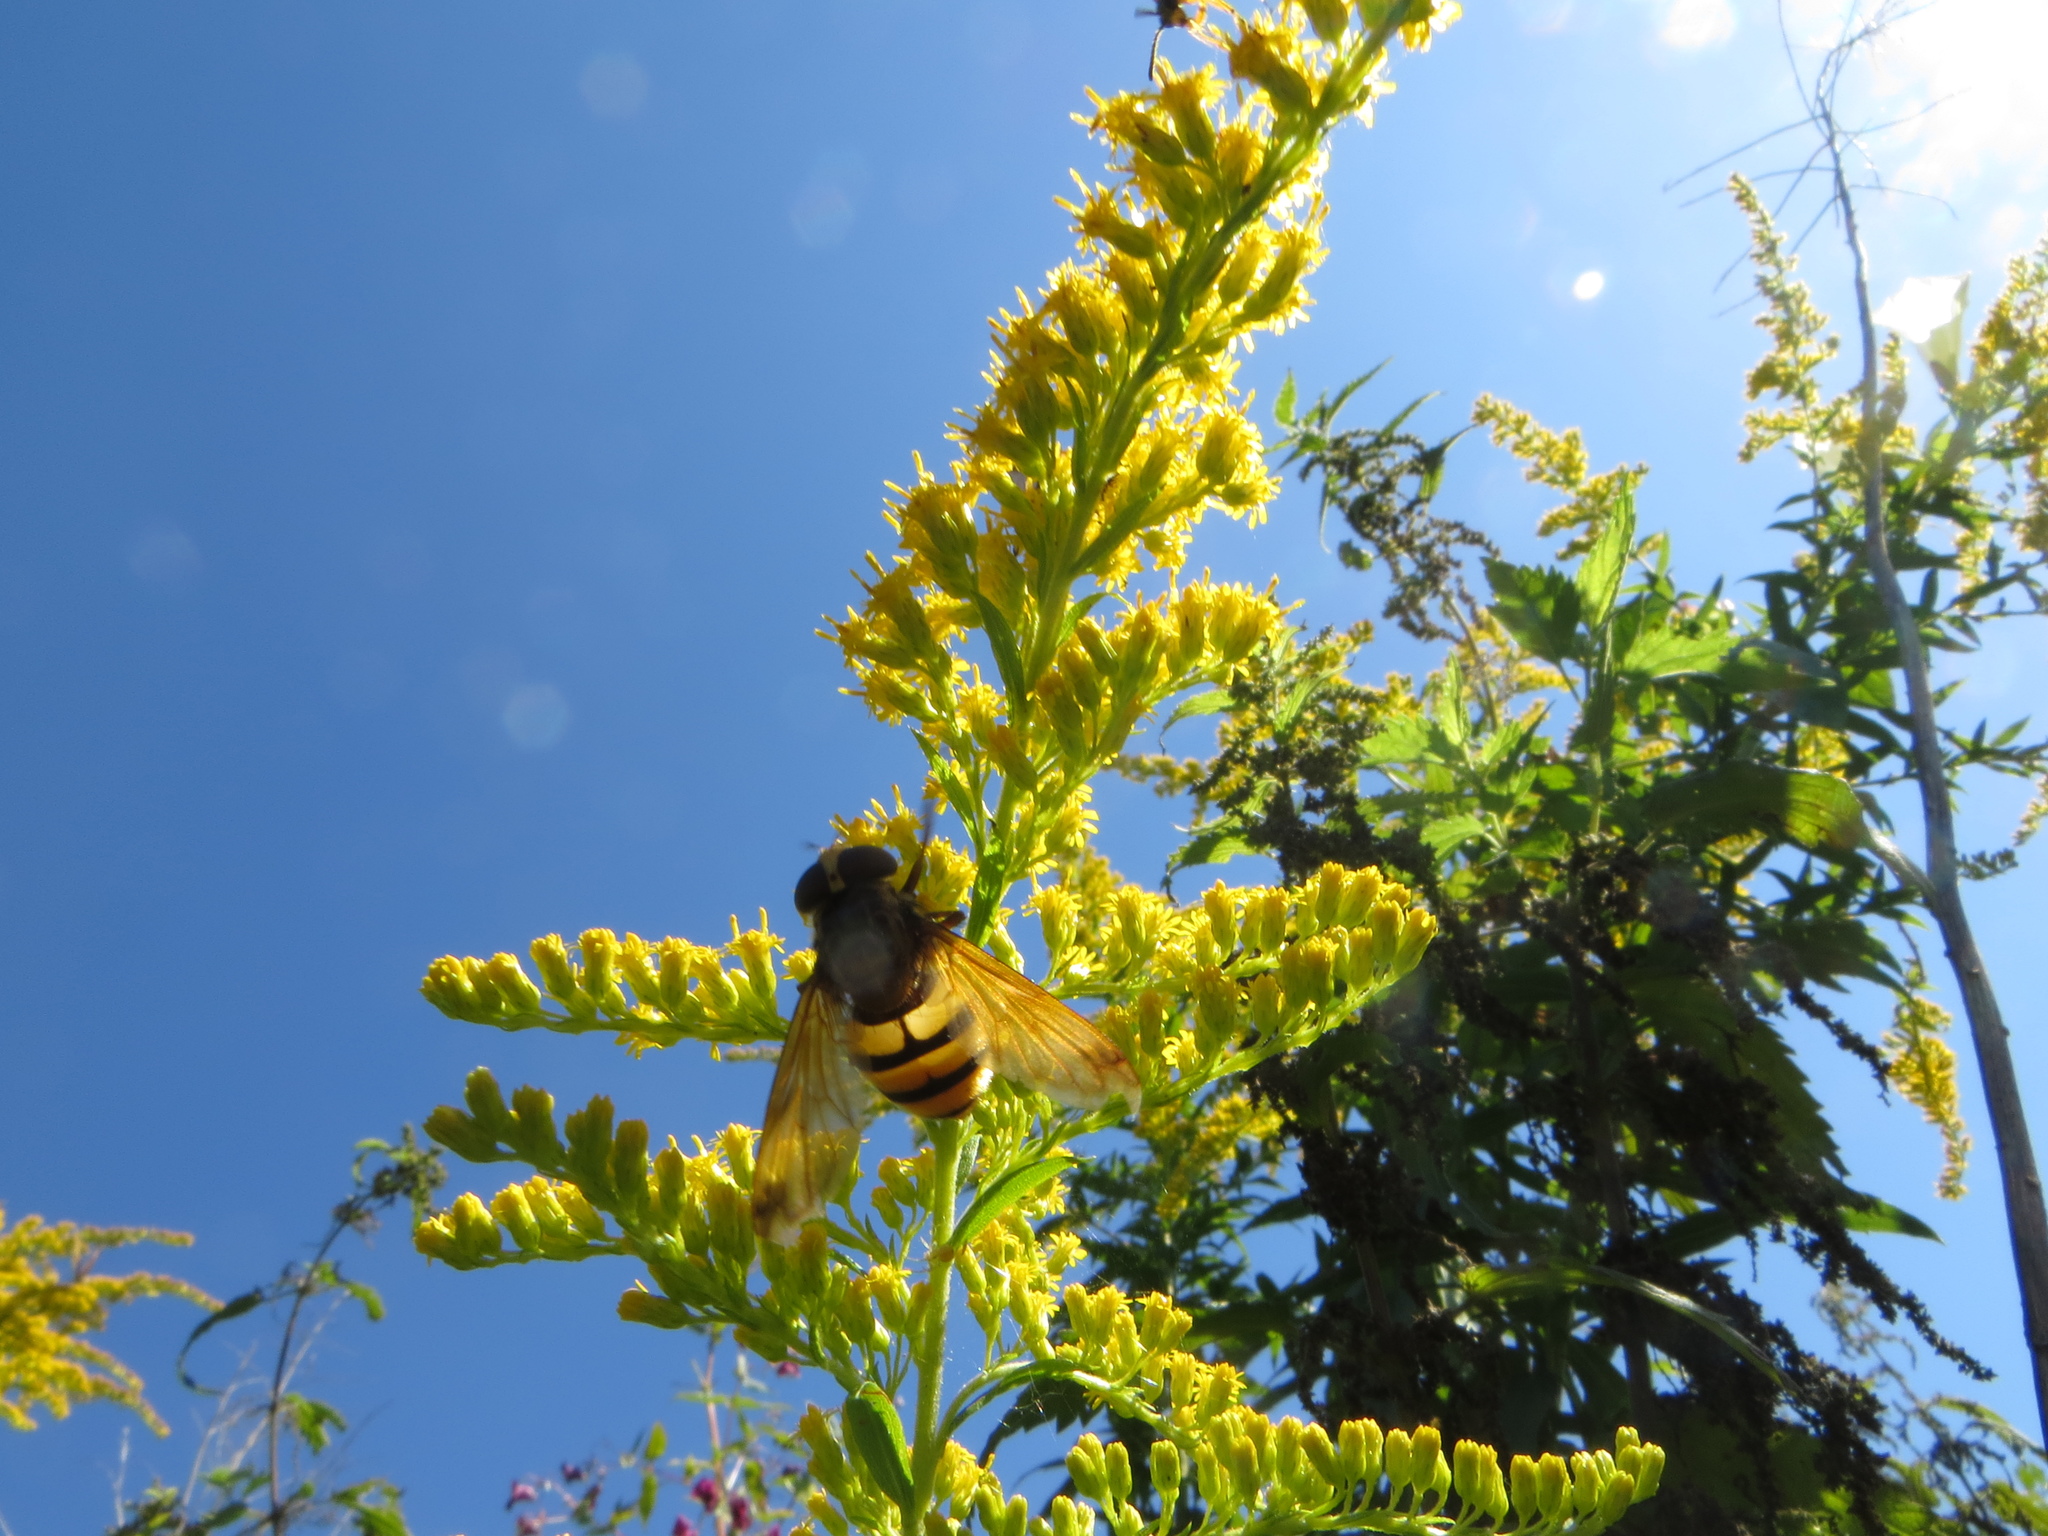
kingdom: Animalia
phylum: Arthropoda
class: Insecta
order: Diptera
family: Syrphidae
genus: Volucella
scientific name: Volucella inanis
